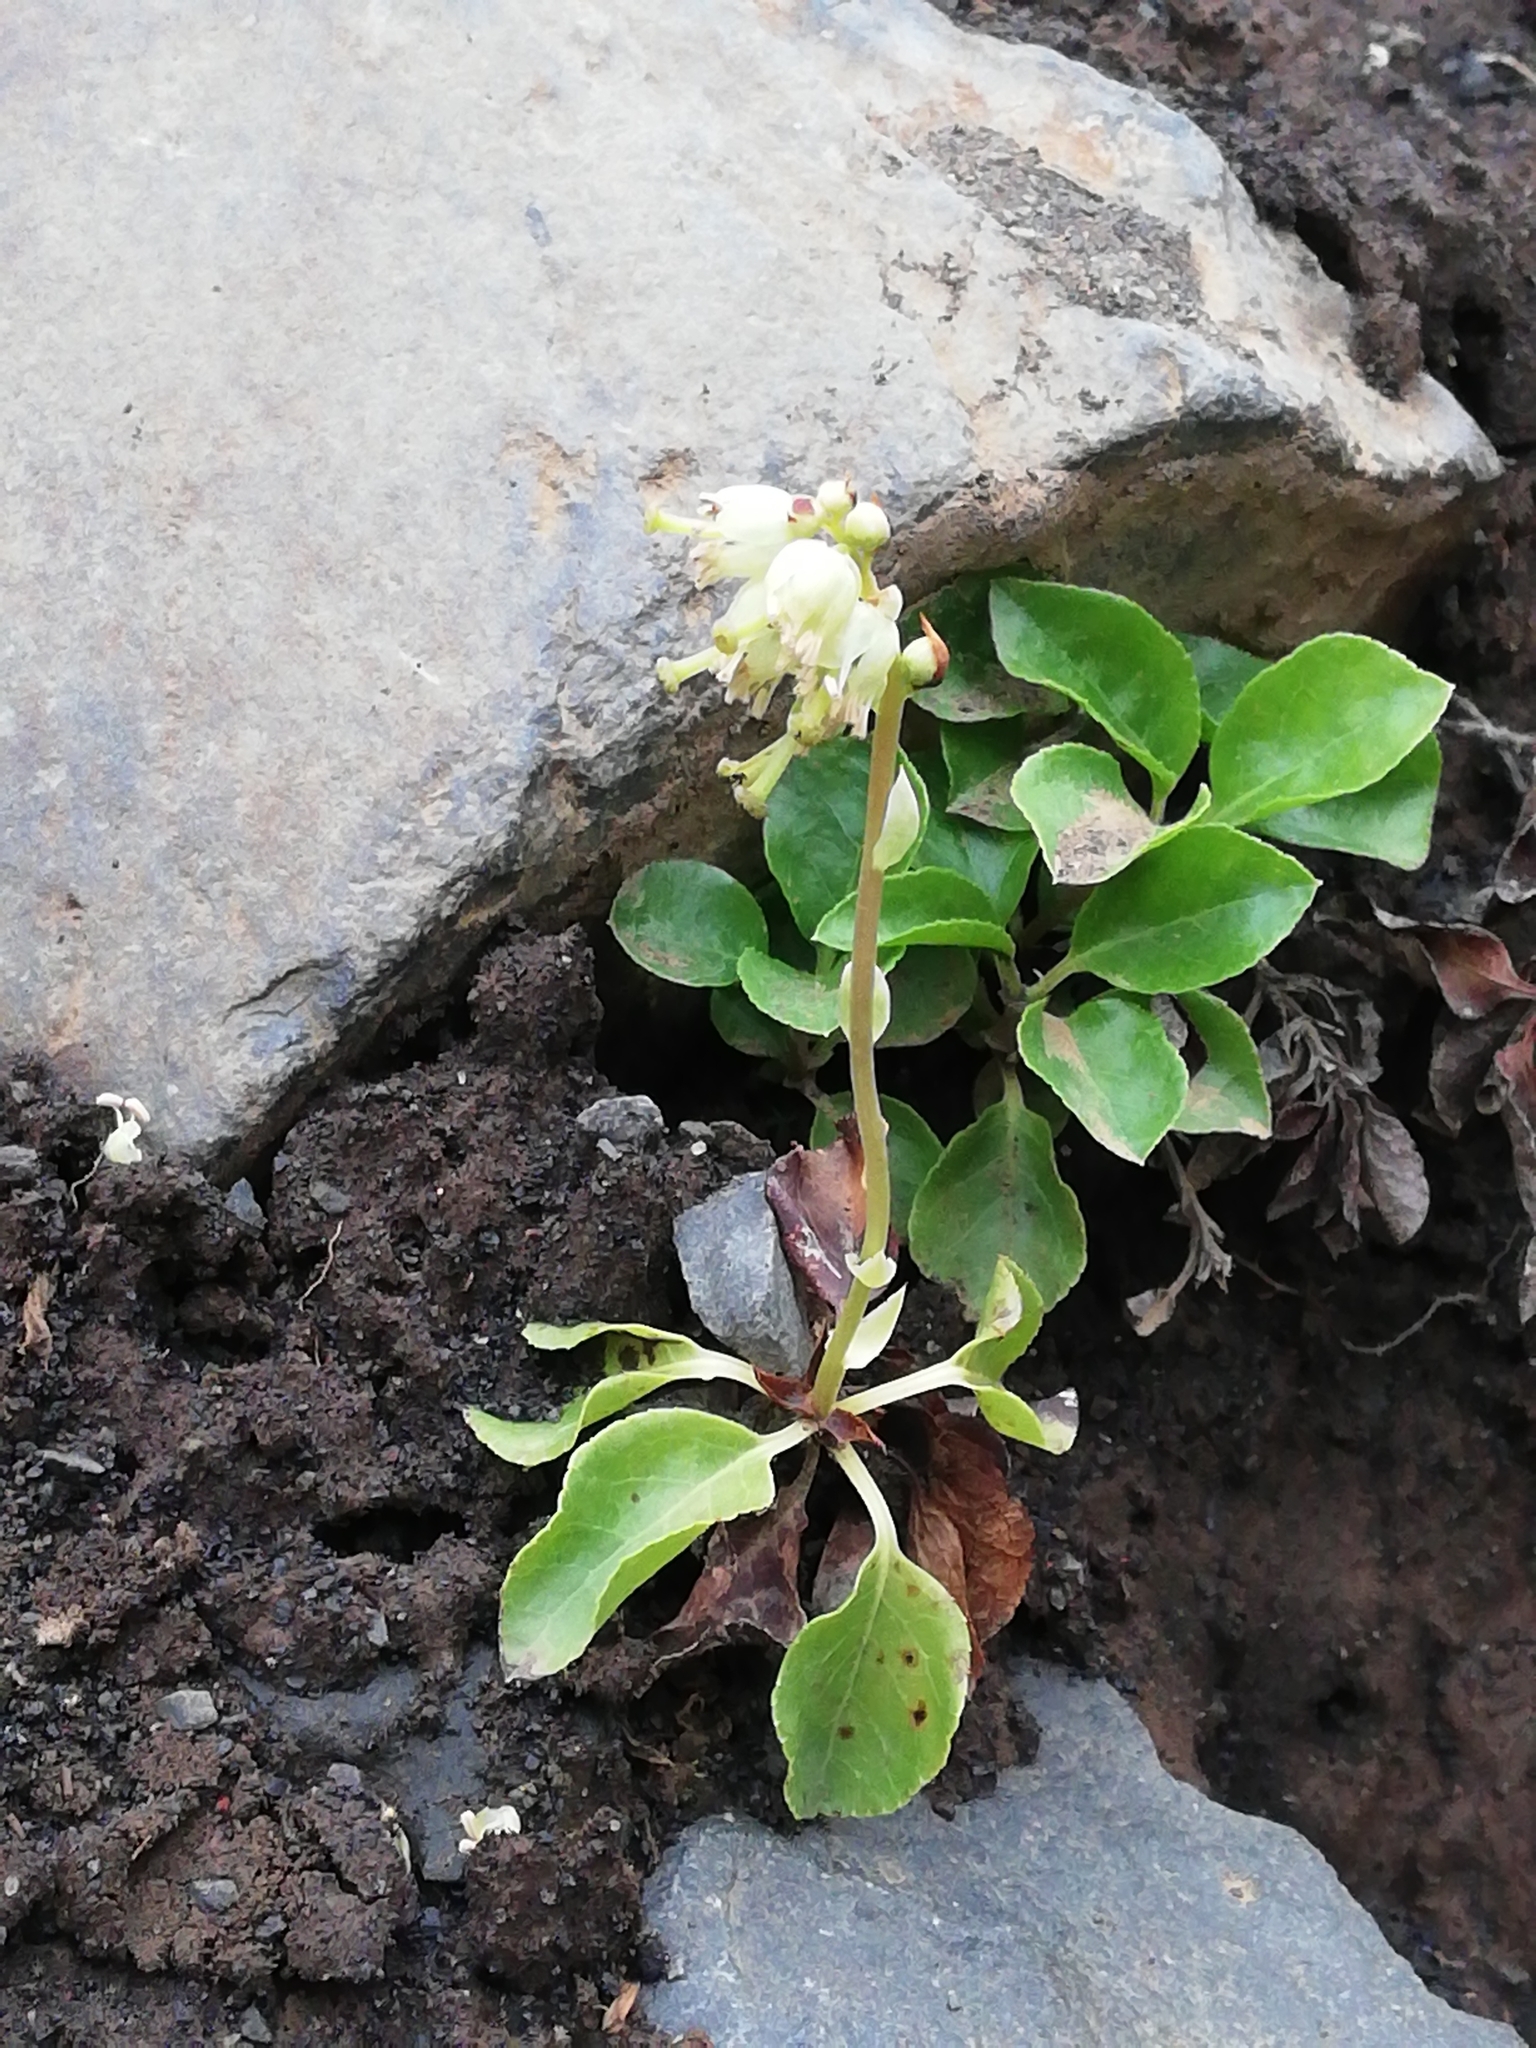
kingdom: Plantae
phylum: Tracheophyta
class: Magnoliopsida
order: Ericales
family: Ericaceae
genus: Orthilia
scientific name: Orthilia secunda
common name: One-sided orthilia
